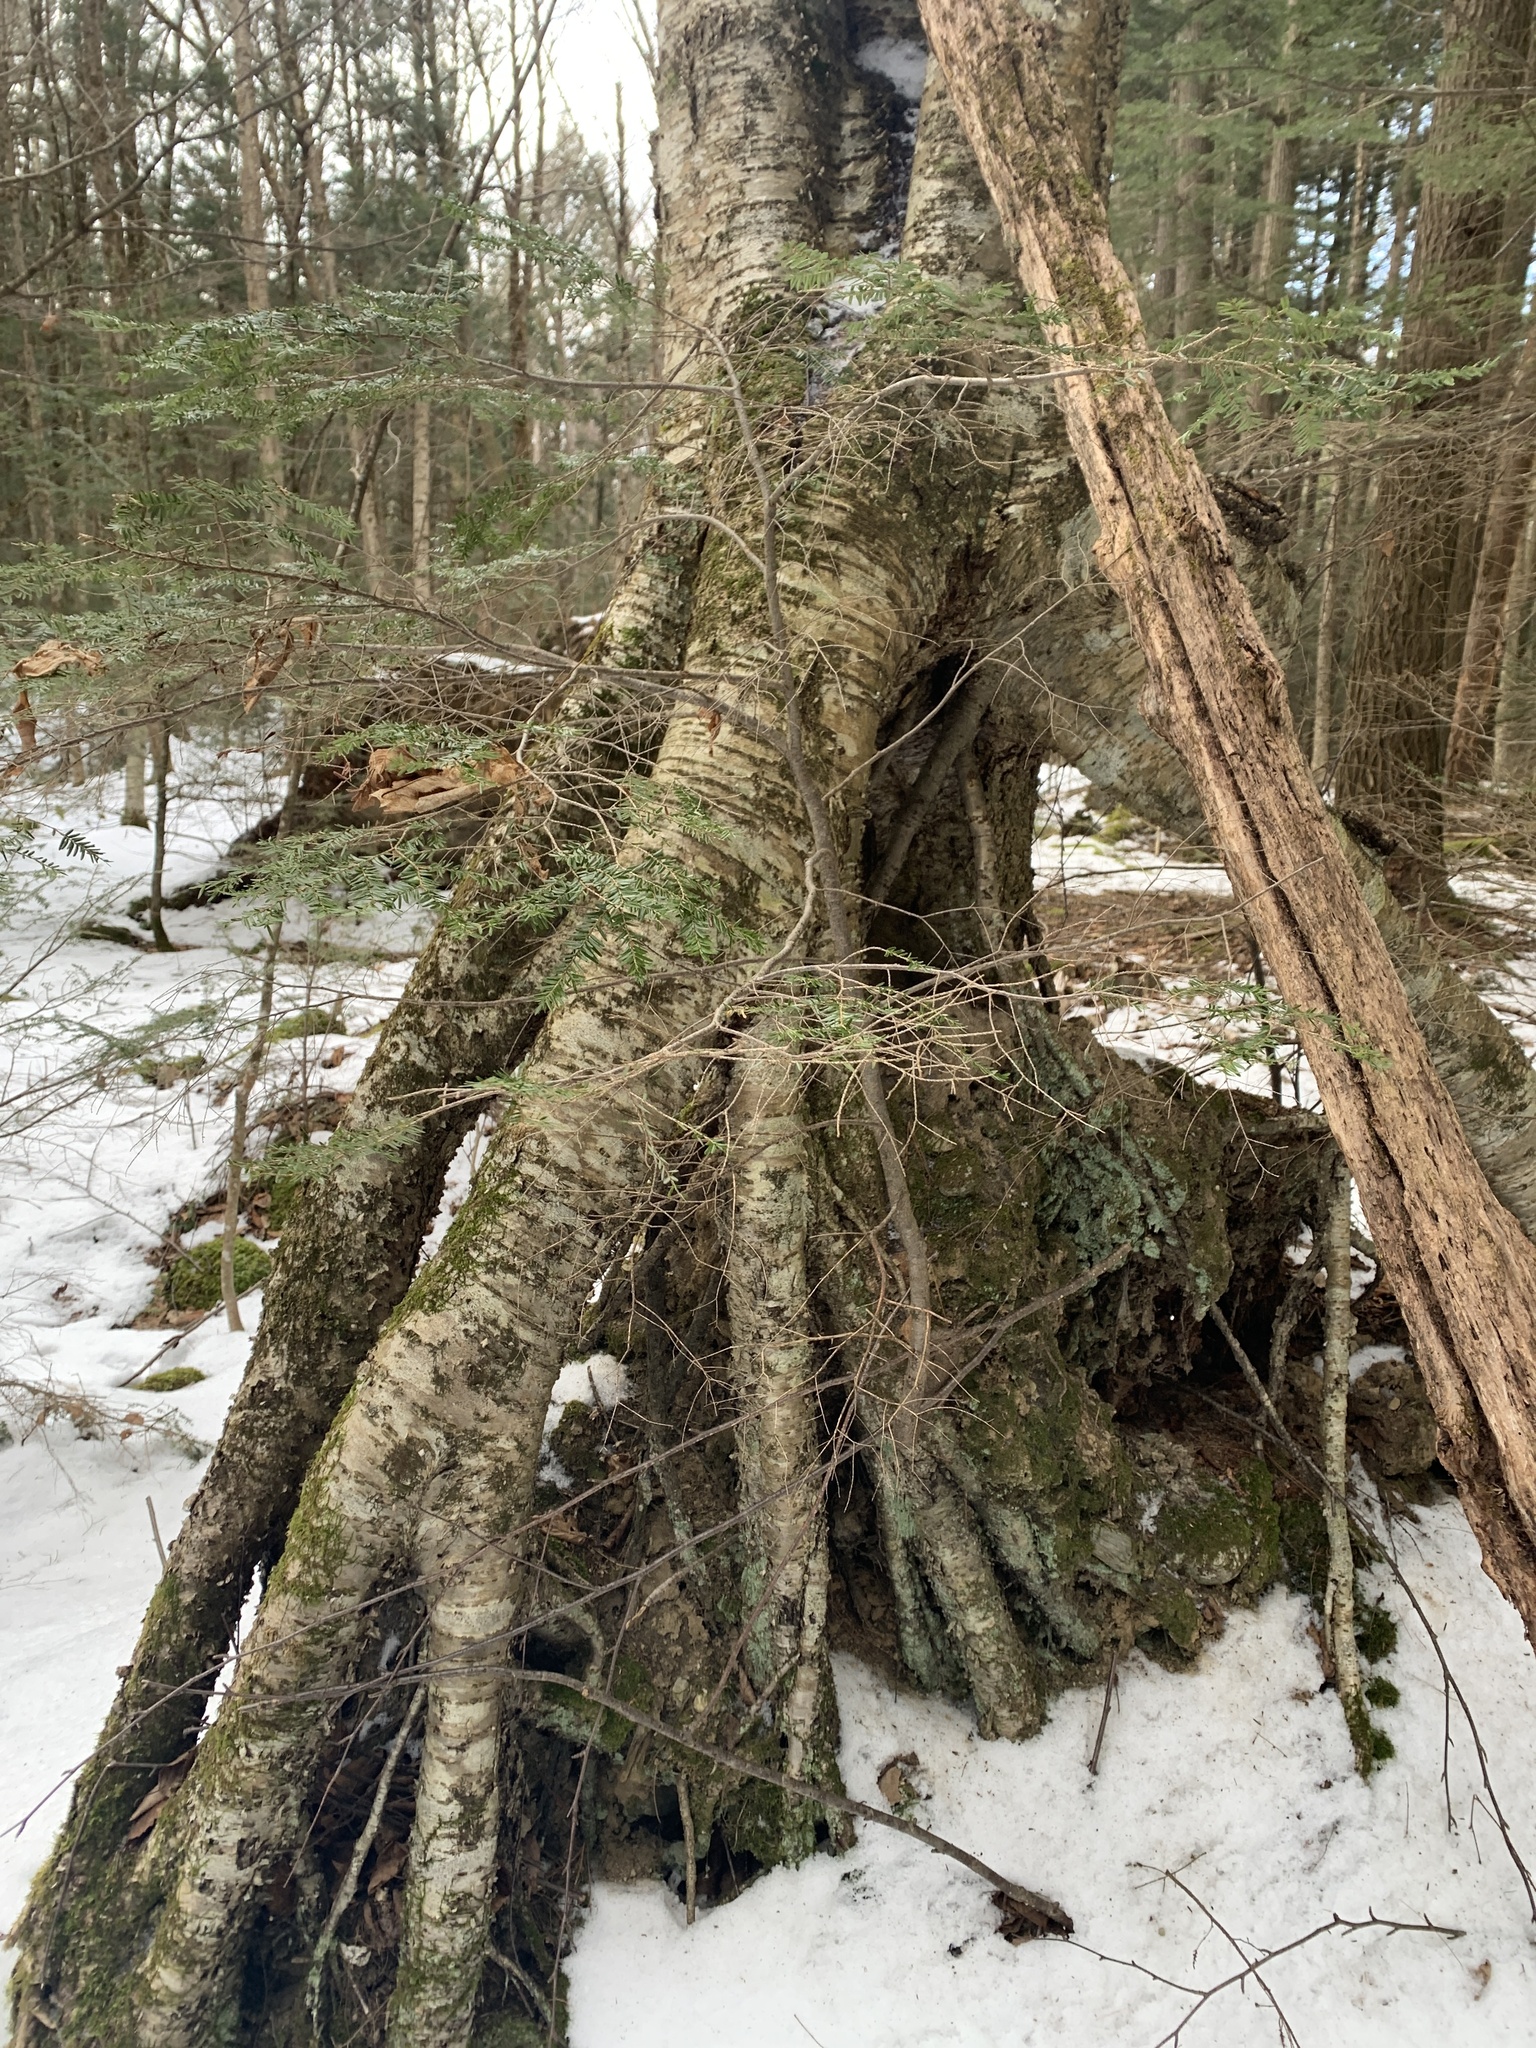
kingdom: Plantae
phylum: Tracheophyta
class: Magnoliopsida
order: Fagales
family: Betulaceae
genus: Betula
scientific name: Betula alleghaniensis
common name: Yellow birch
